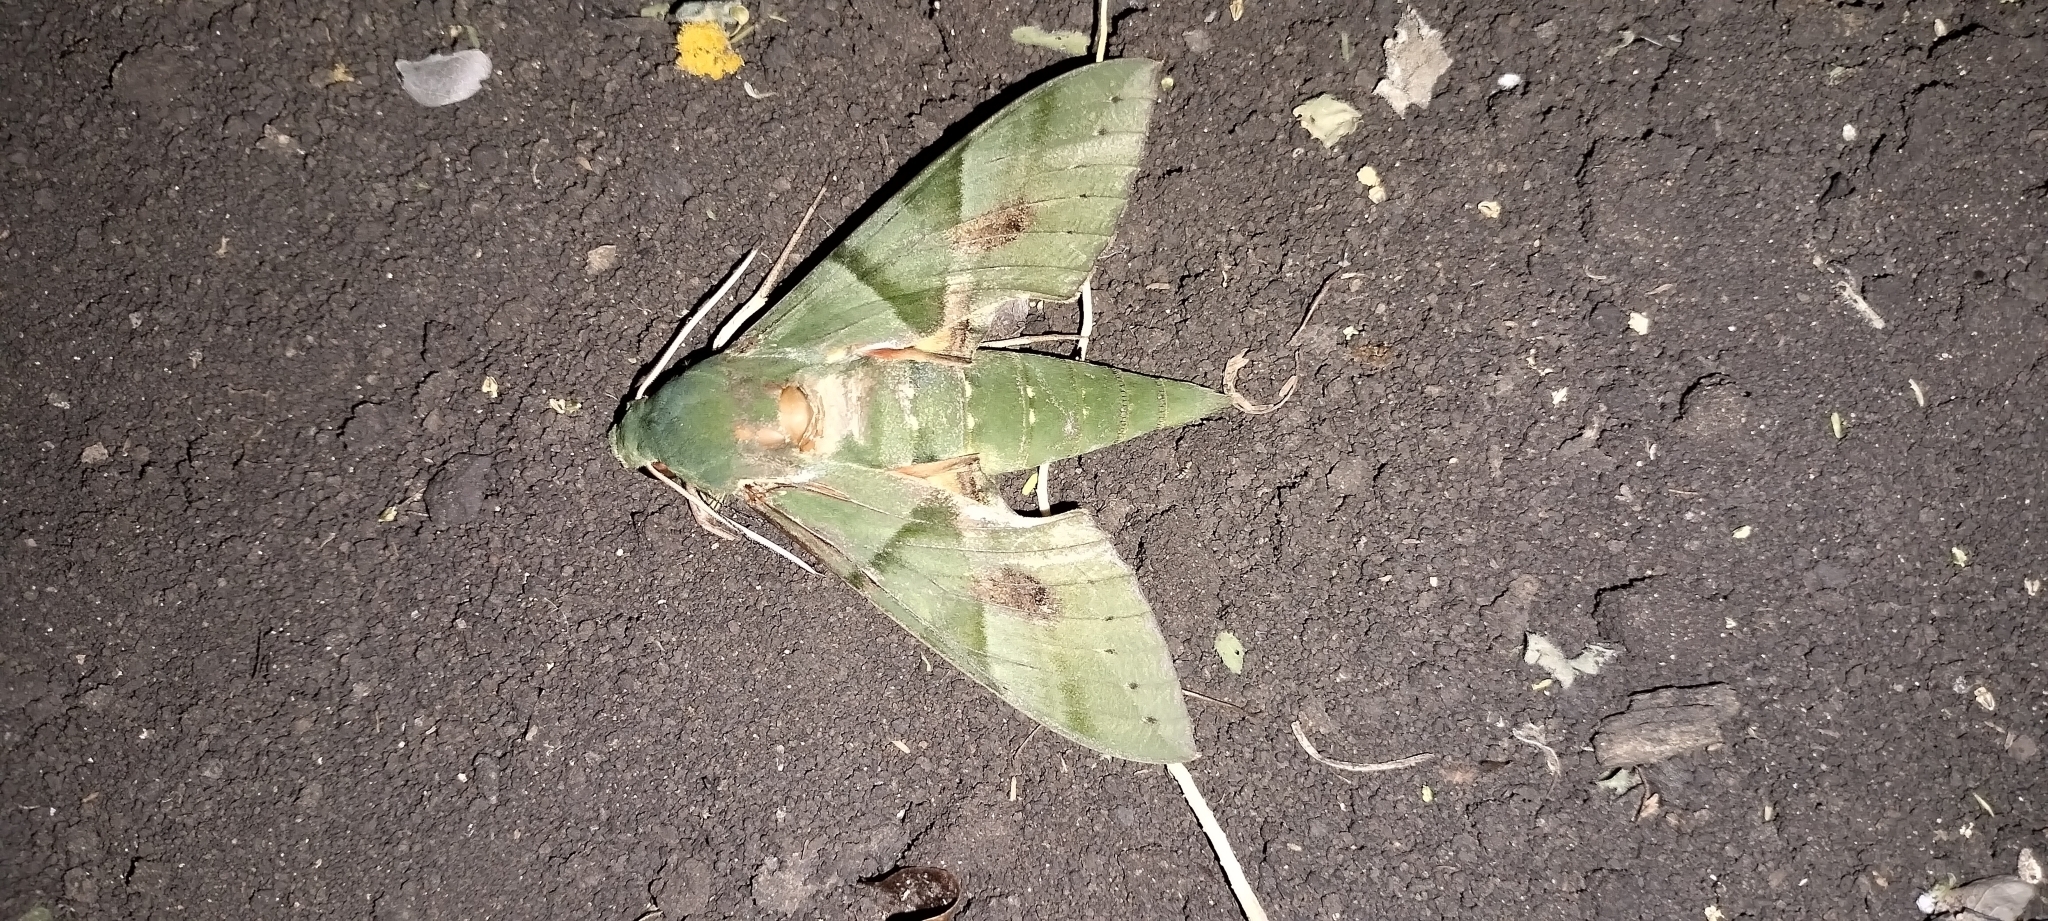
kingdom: Animalia
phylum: Arthropoda
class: Insecta
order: Lepidoptera
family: Sphingidae
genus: Eumorpha
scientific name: Eumorpha labruscae
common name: Gaudy sphinx
